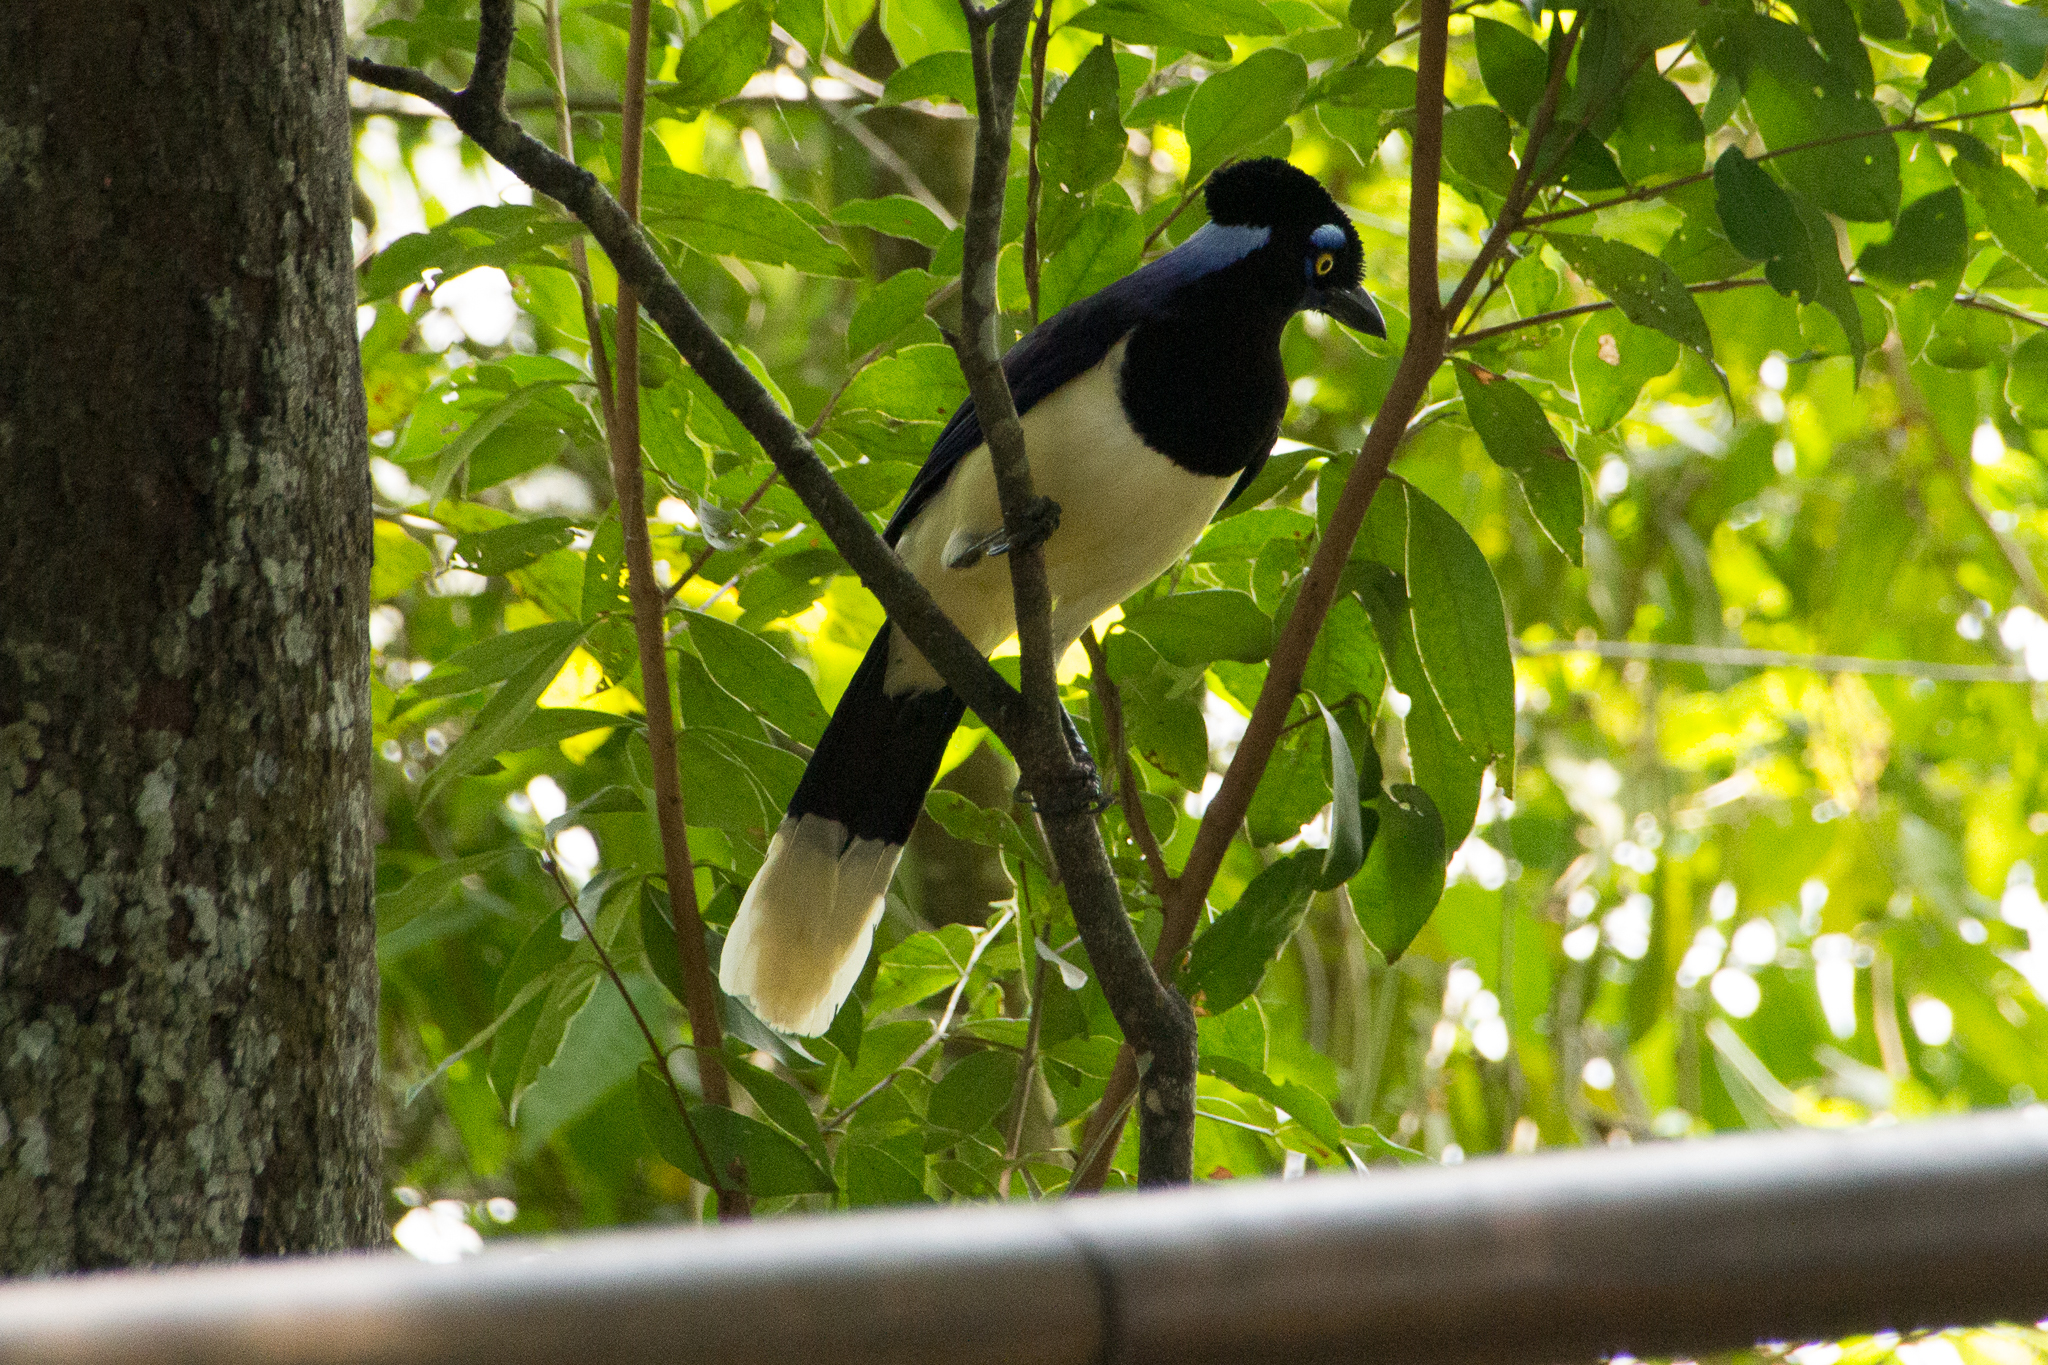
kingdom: Animalia
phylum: Chordata
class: Aves
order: Passeriformes
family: Corvidae
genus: Cyanocorax
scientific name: Cyanocorax chrysops
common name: Plush-crested jay
